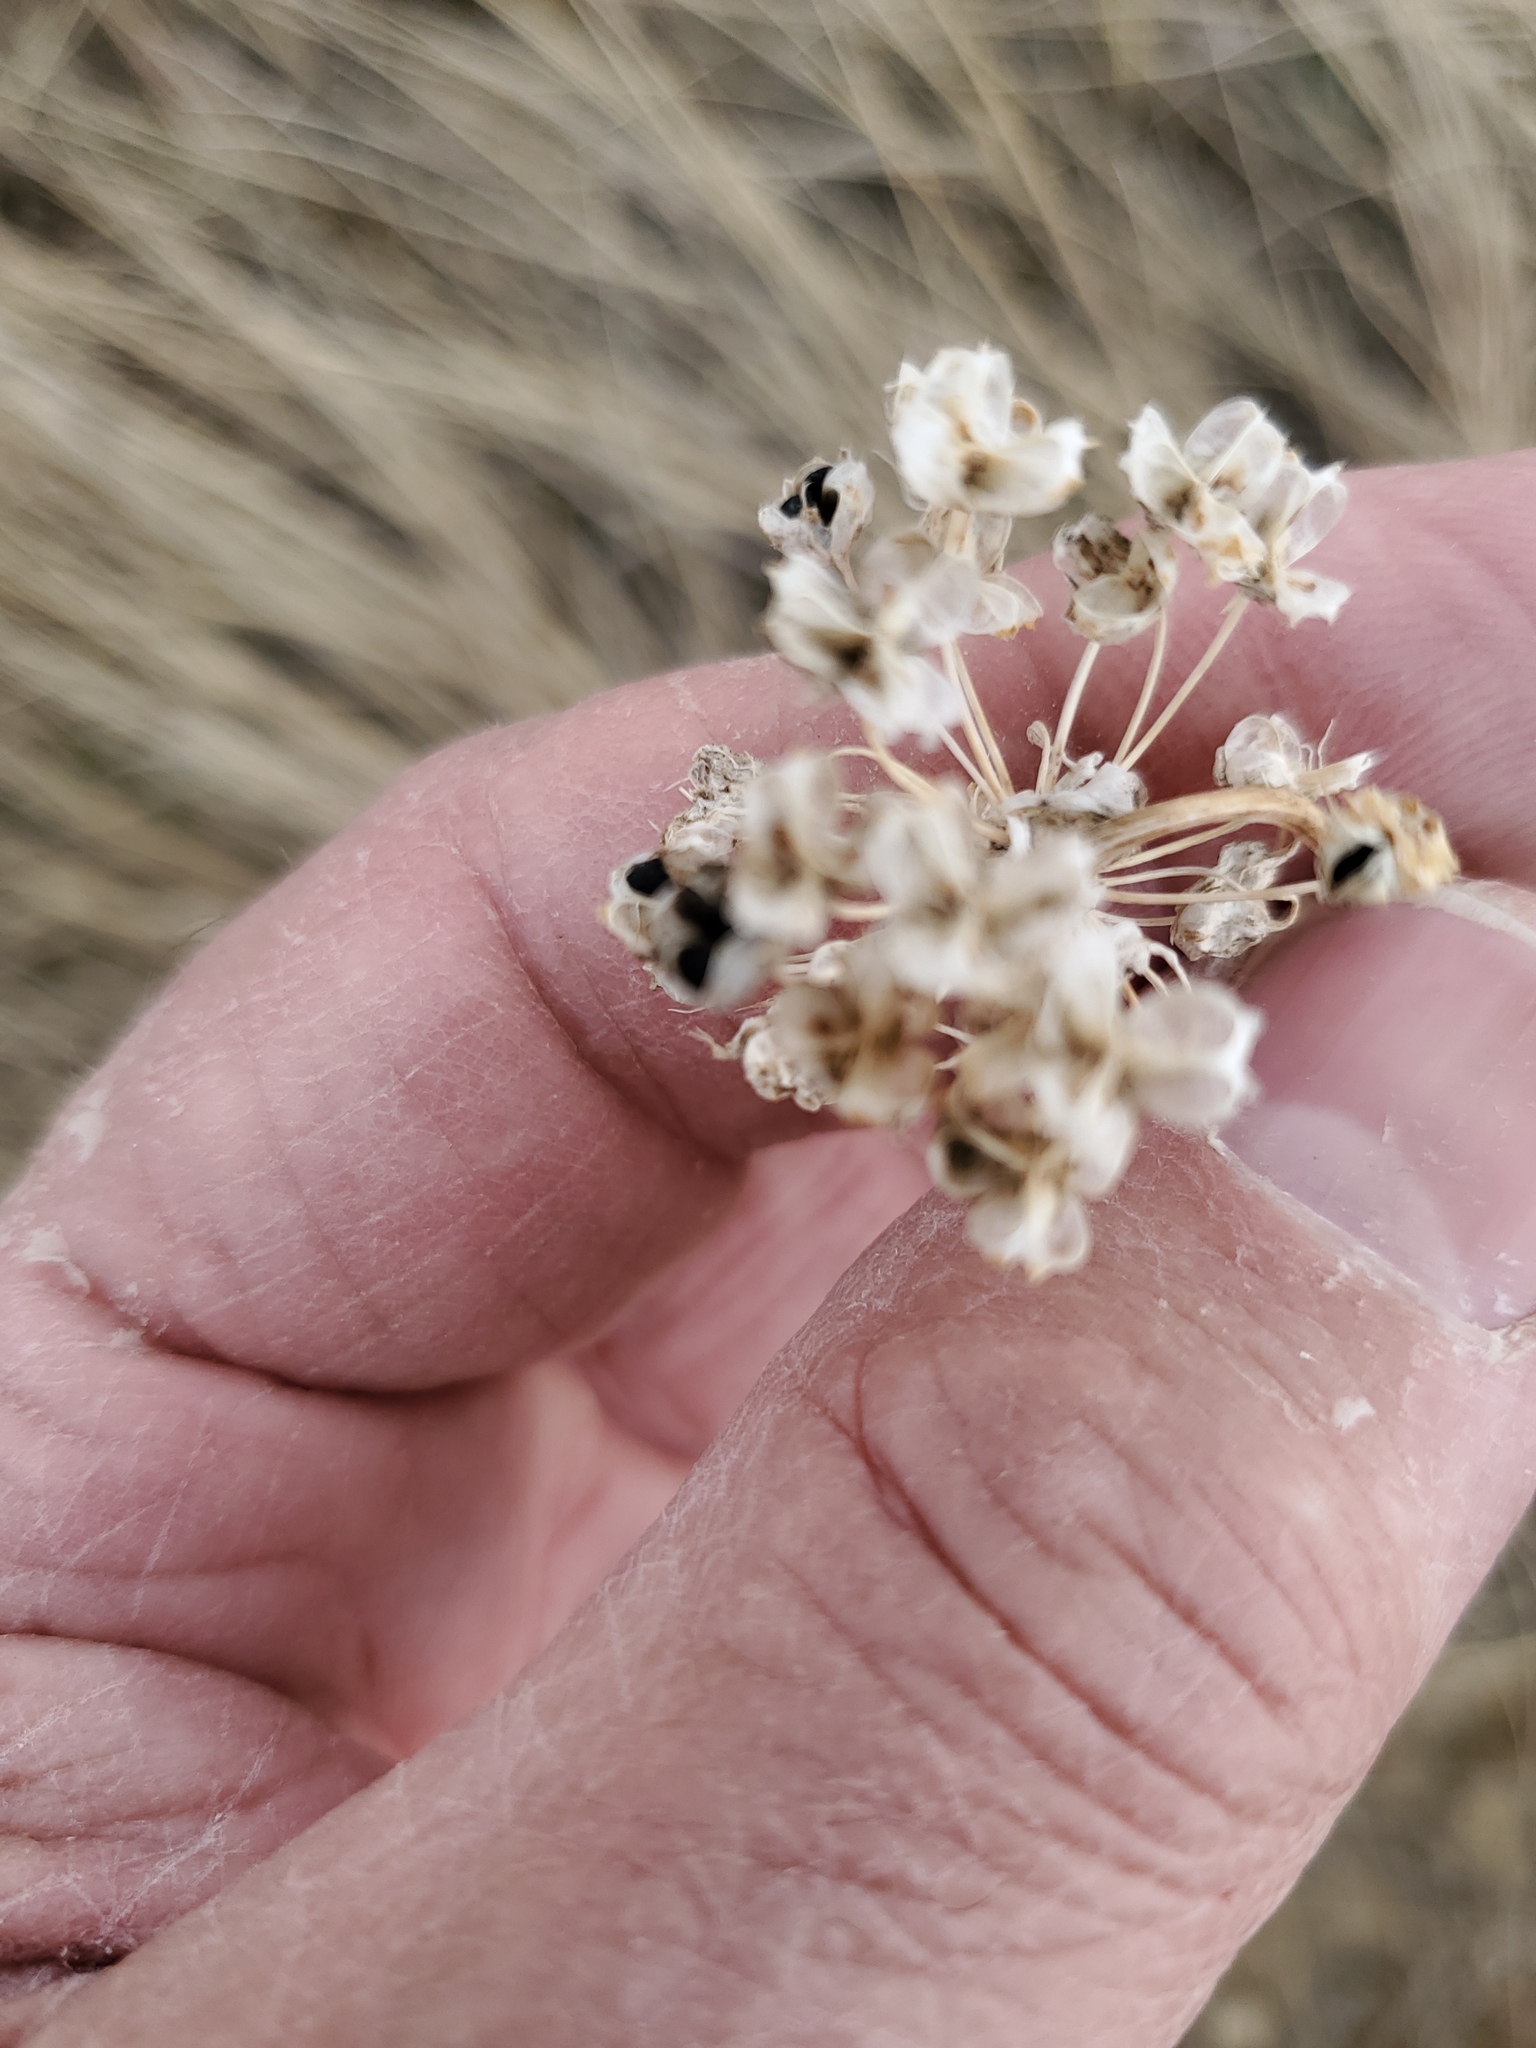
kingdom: Plantae
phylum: Tracheophyta
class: Liliopsida
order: Asparagales
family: Amaryllidaceae
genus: Allium
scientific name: Allium cernuum
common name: Nodding onion
